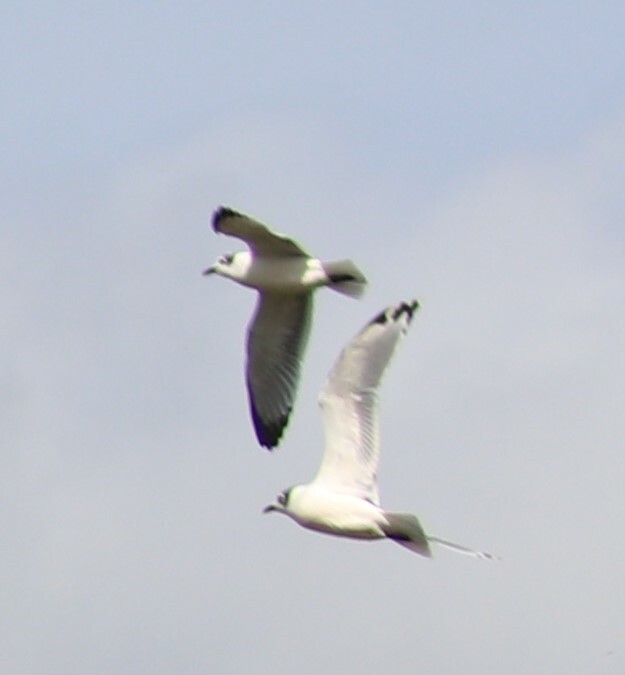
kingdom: Animalia
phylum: Chordata
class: Aves
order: Charadriiformes
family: Laridae
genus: Leucophaeus
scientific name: Leucophaeus pipixcan
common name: Franklin's gull
